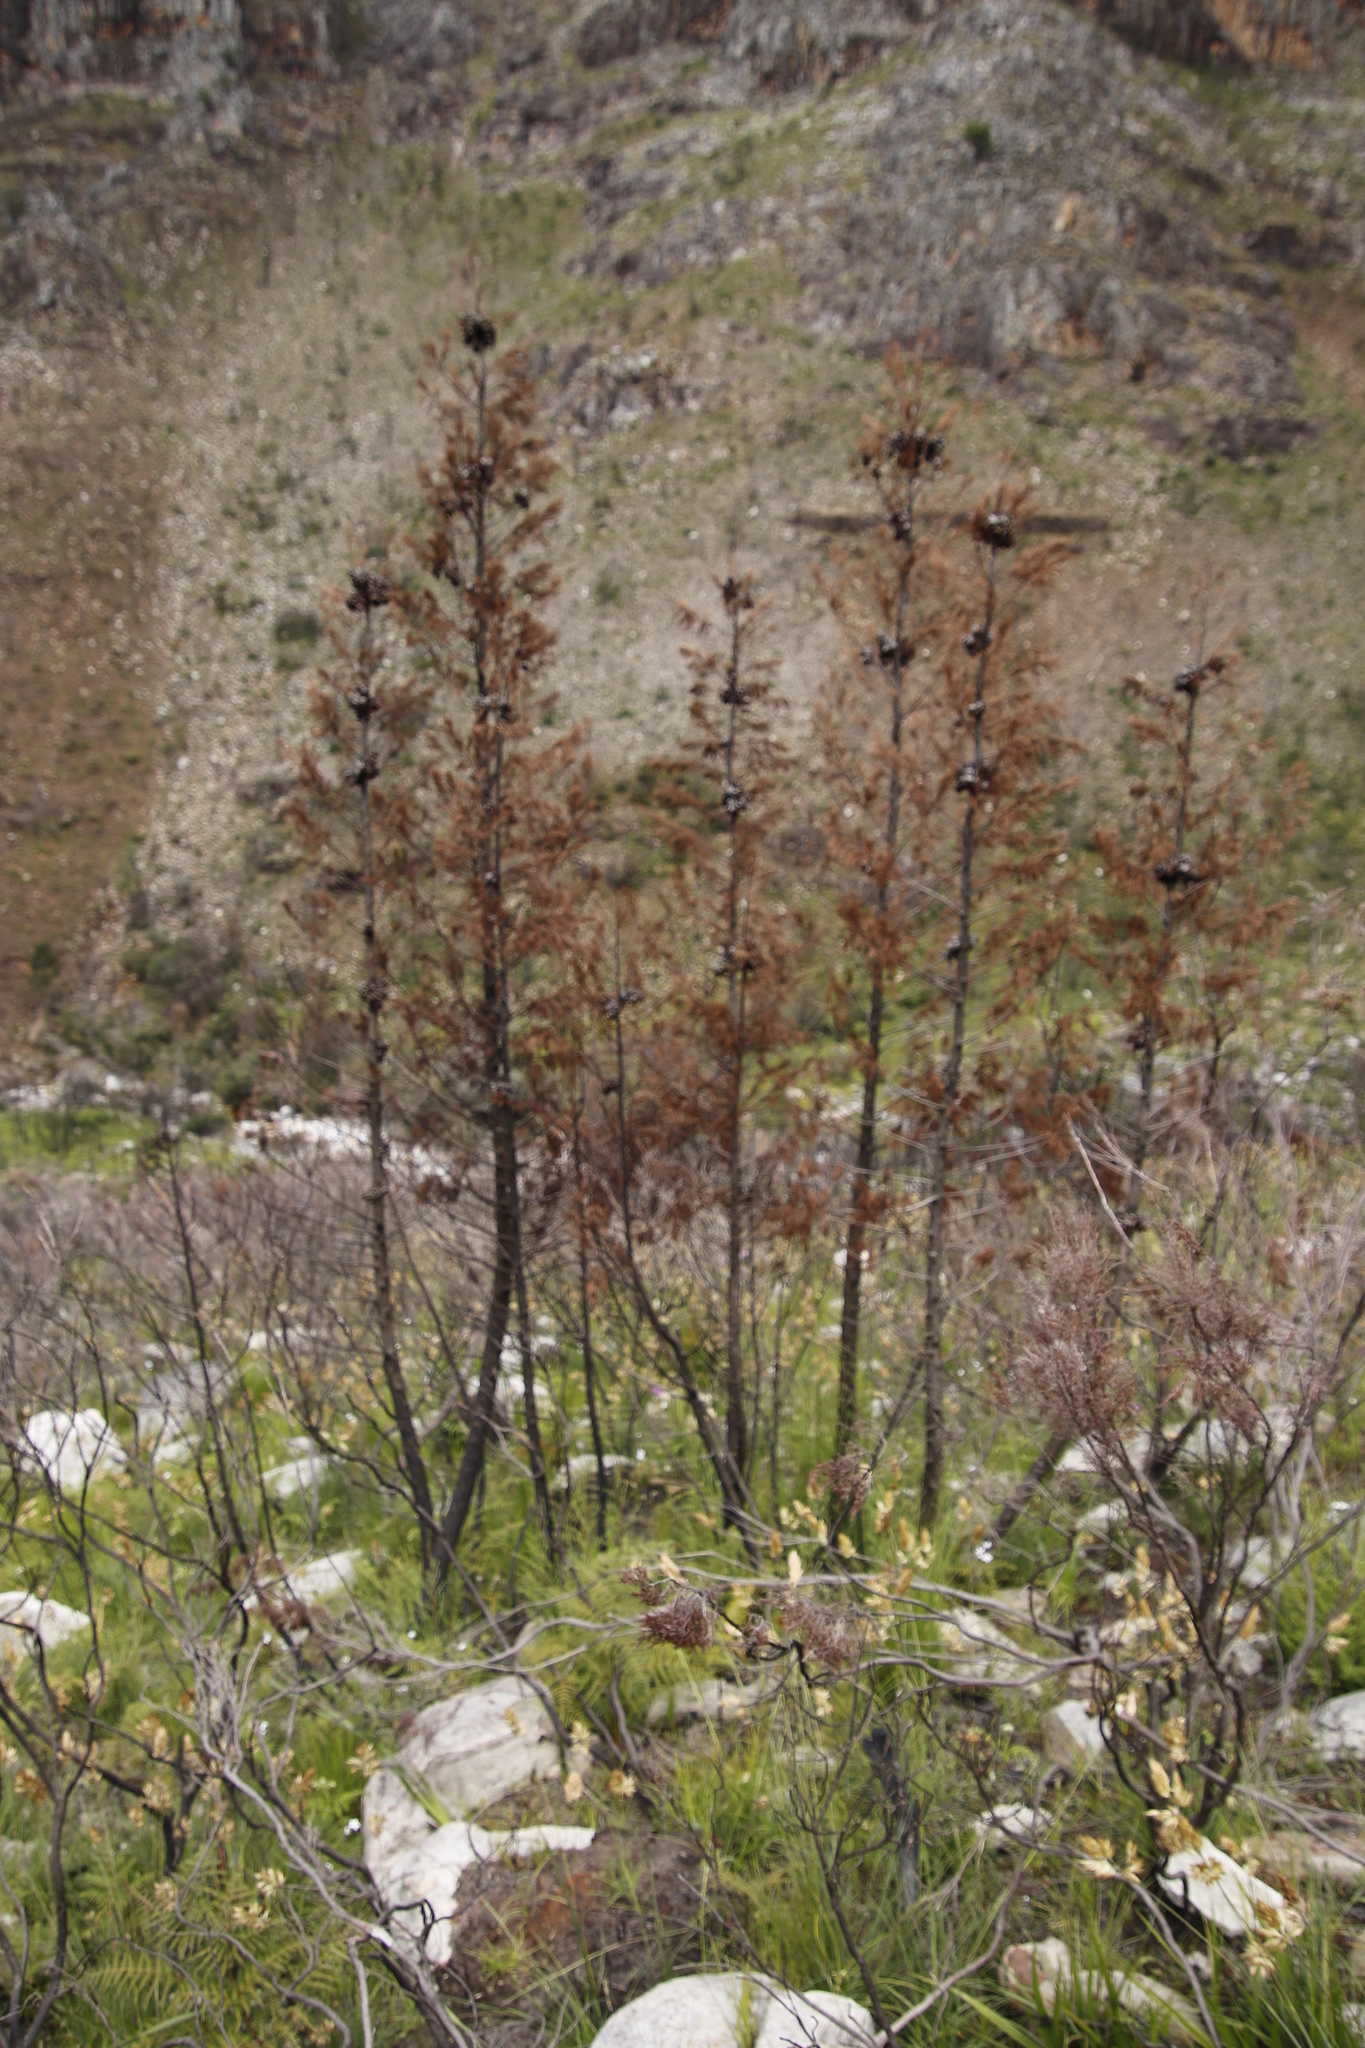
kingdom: Plantae
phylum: Tracheophyta
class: Pinopsida
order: Pinales
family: Cupressaceae
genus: Widdringtonia
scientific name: Widdringtonia nodiflora
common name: Cape cypress
